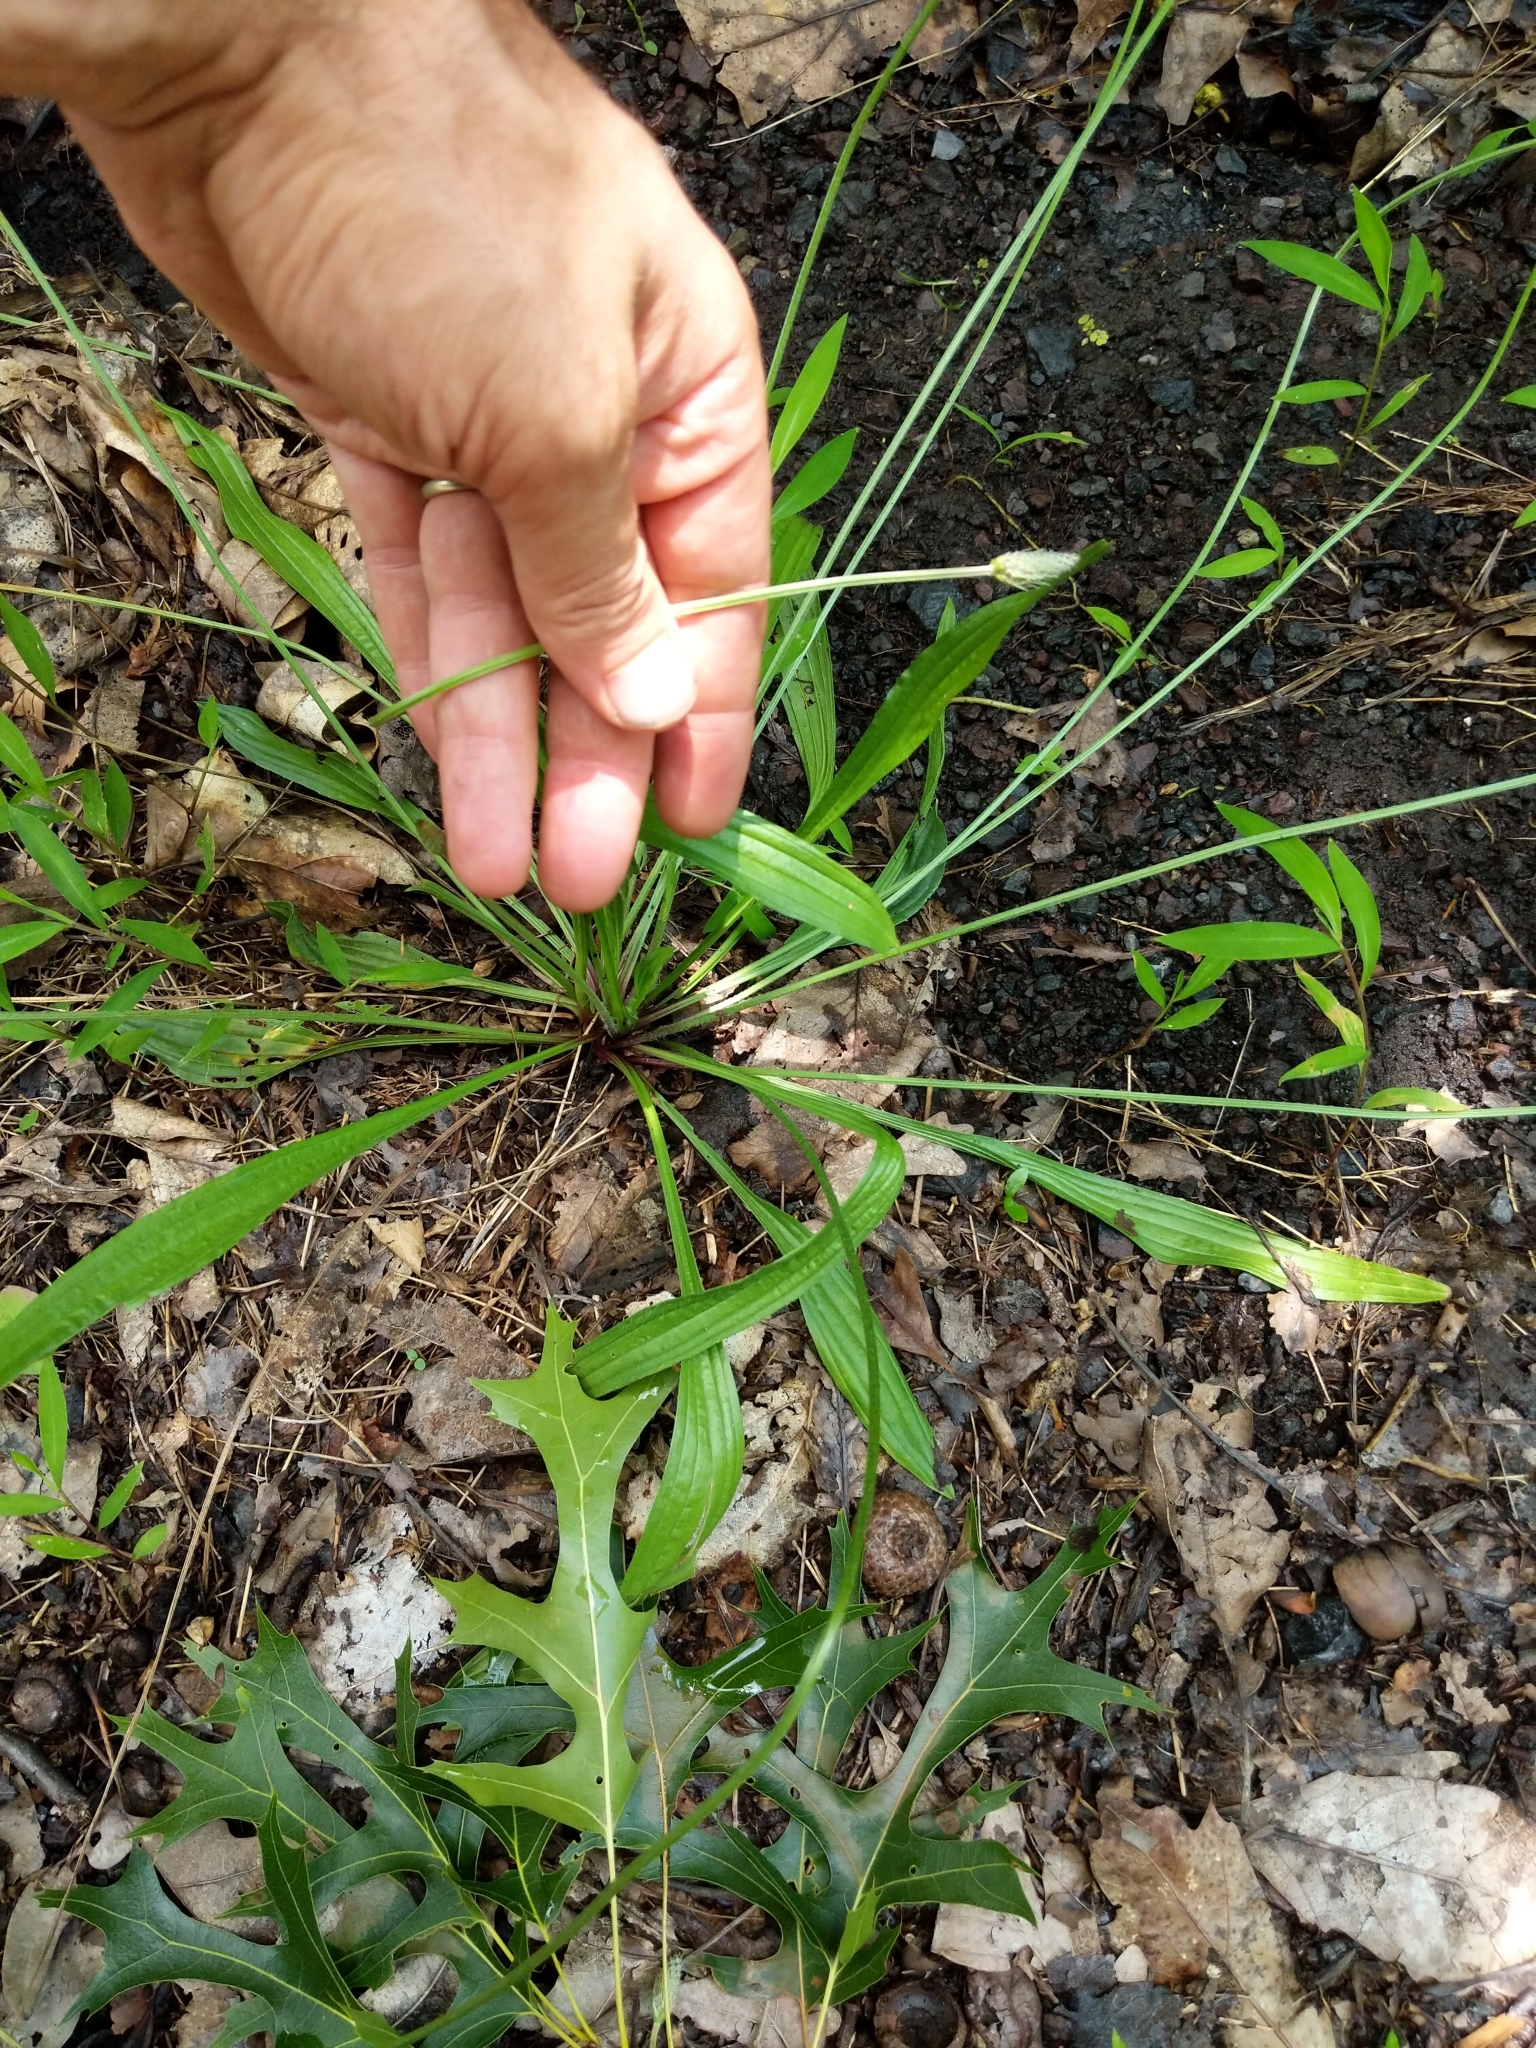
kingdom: Plantae
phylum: Tracheophyta
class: Magnoliopsida
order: Lamiales
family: Plantaginaceae
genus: Plantago
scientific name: Plantago lanceolata
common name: Ribwort plantain
